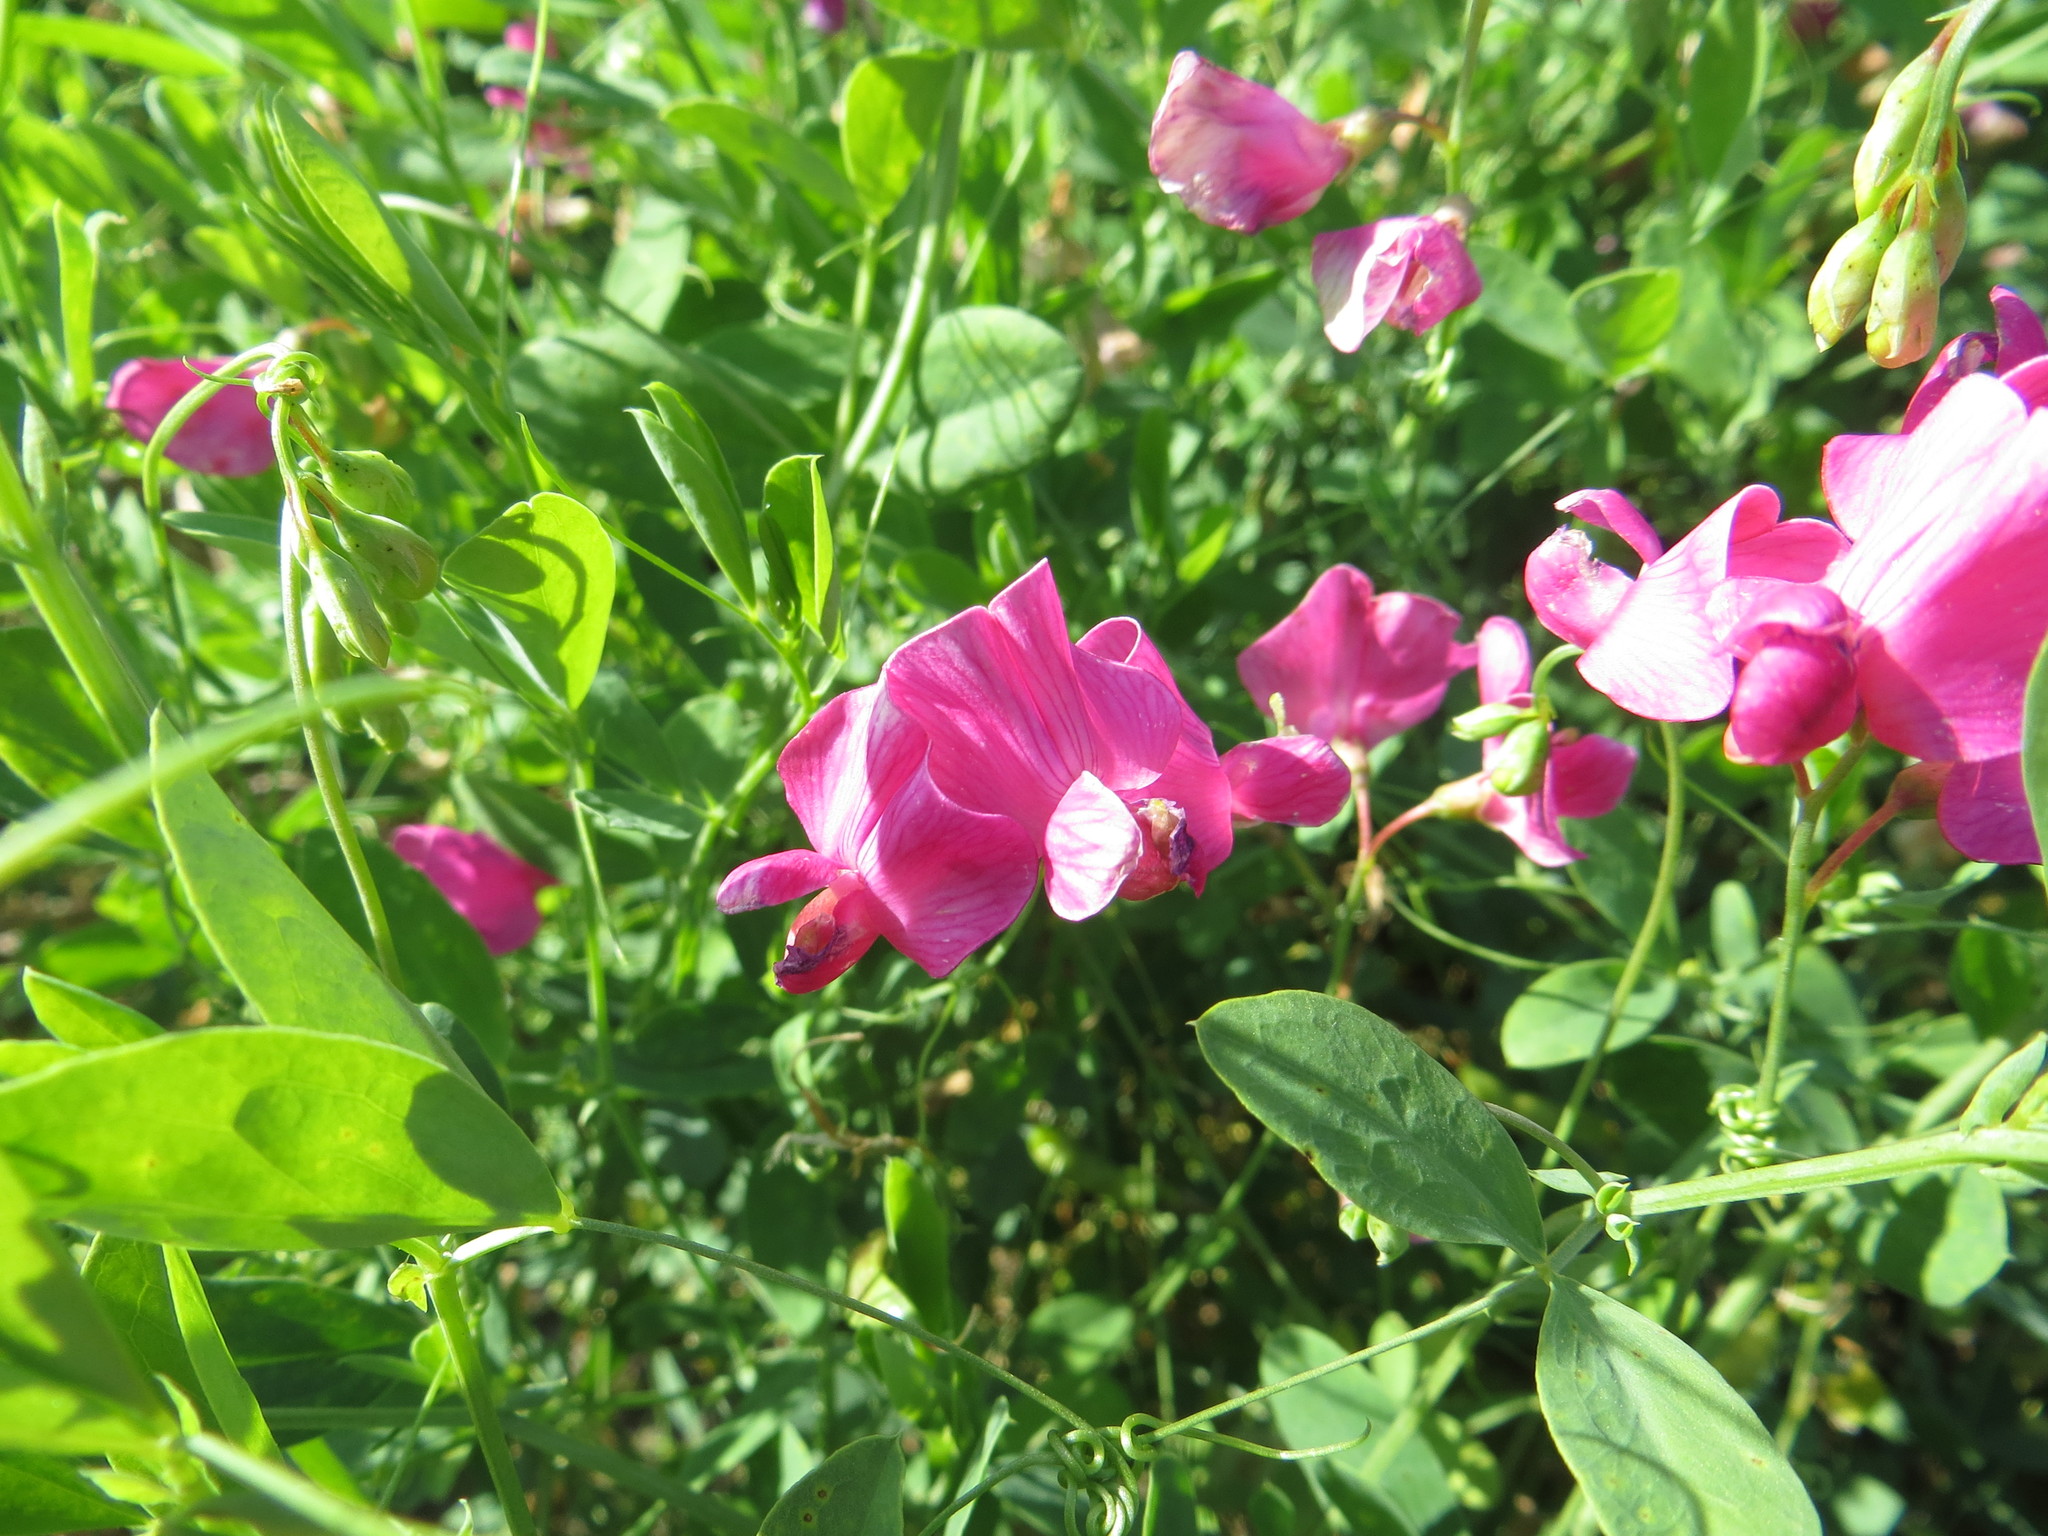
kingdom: Plantae
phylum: Tracheophyta
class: Magnoliopsida
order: Fabales
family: Fabaceae
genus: Lathyrus
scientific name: Lathyrus tuberosus
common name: Tuberous pea
